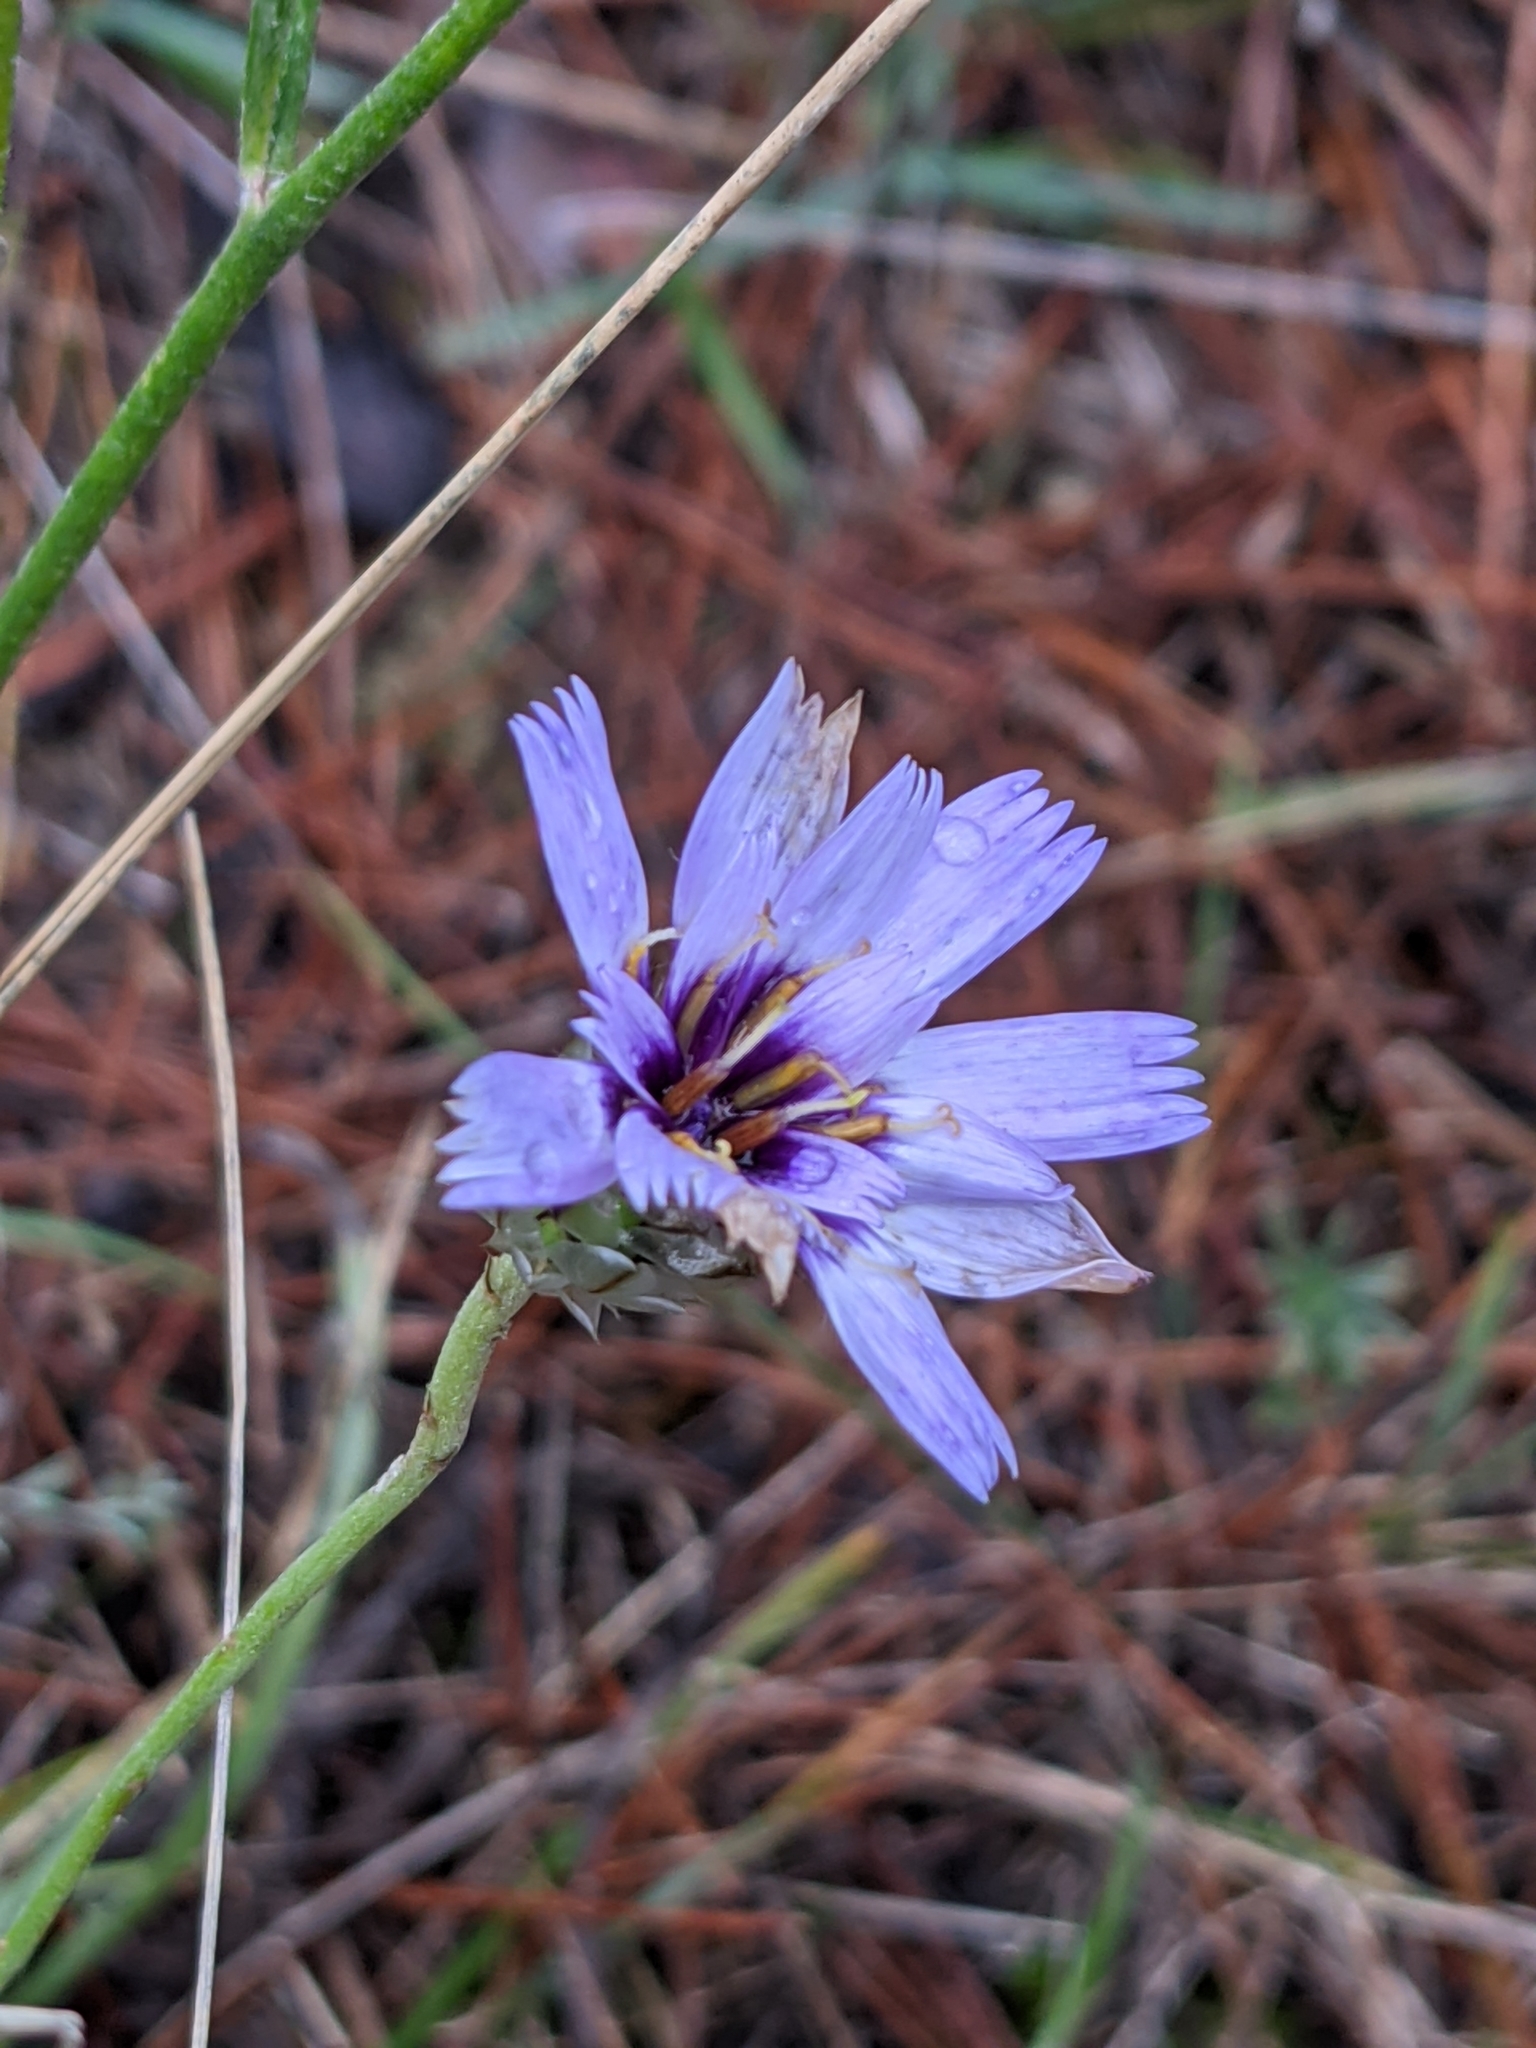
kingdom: Plantae
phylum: Tracheophyta
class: Magnoliopsida
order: Asterales
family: Asteraceae
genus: Catananche
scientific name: Catananche caerulea
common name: Blue cupidone
